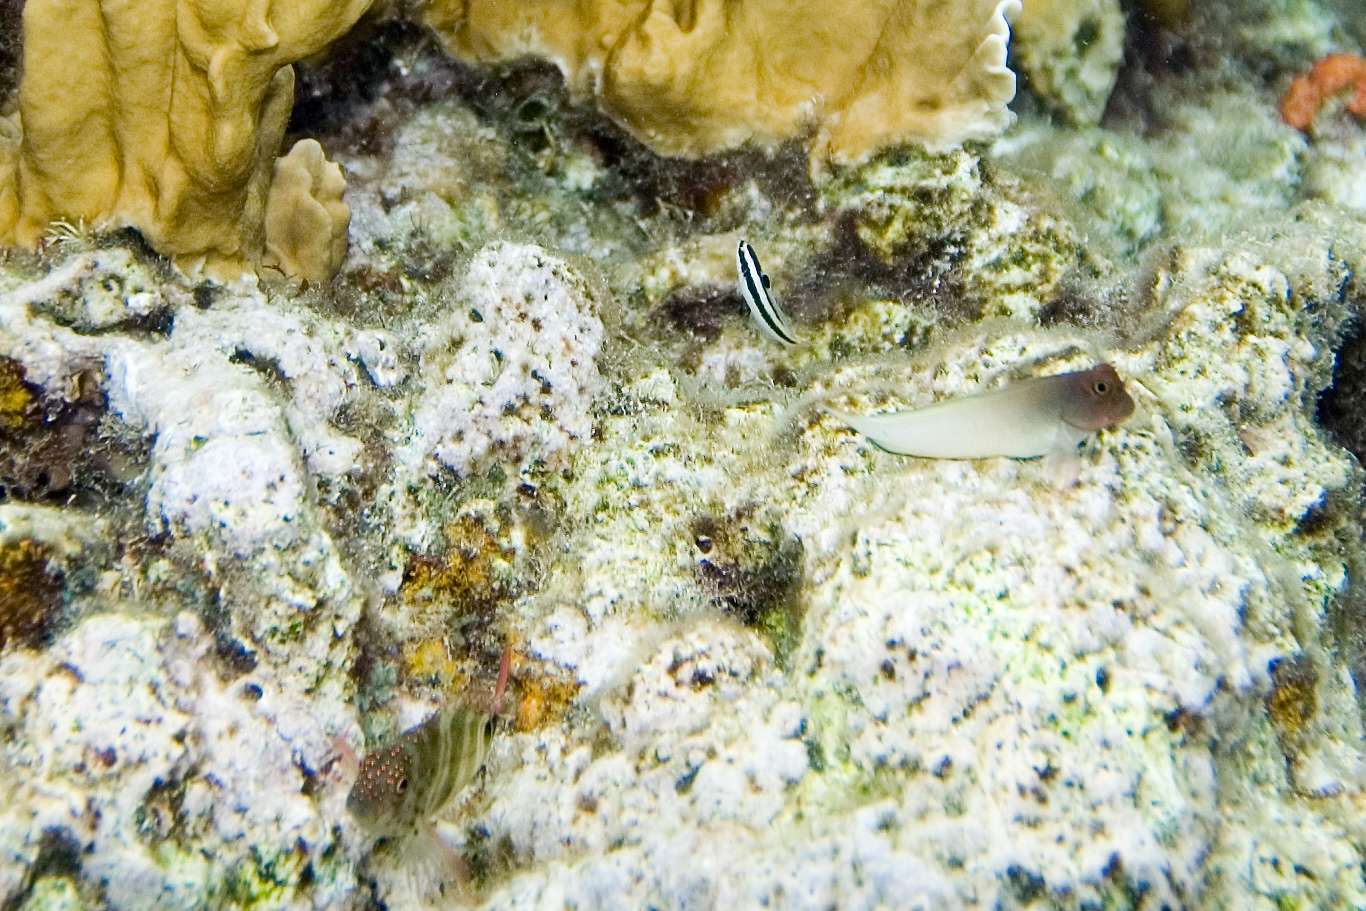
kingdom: Animalia
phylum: Chordata
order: Perciformes
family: Blenniidae
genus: Ophioblennius
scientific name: Ophioblennius macclurei
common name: Redlip blenny
